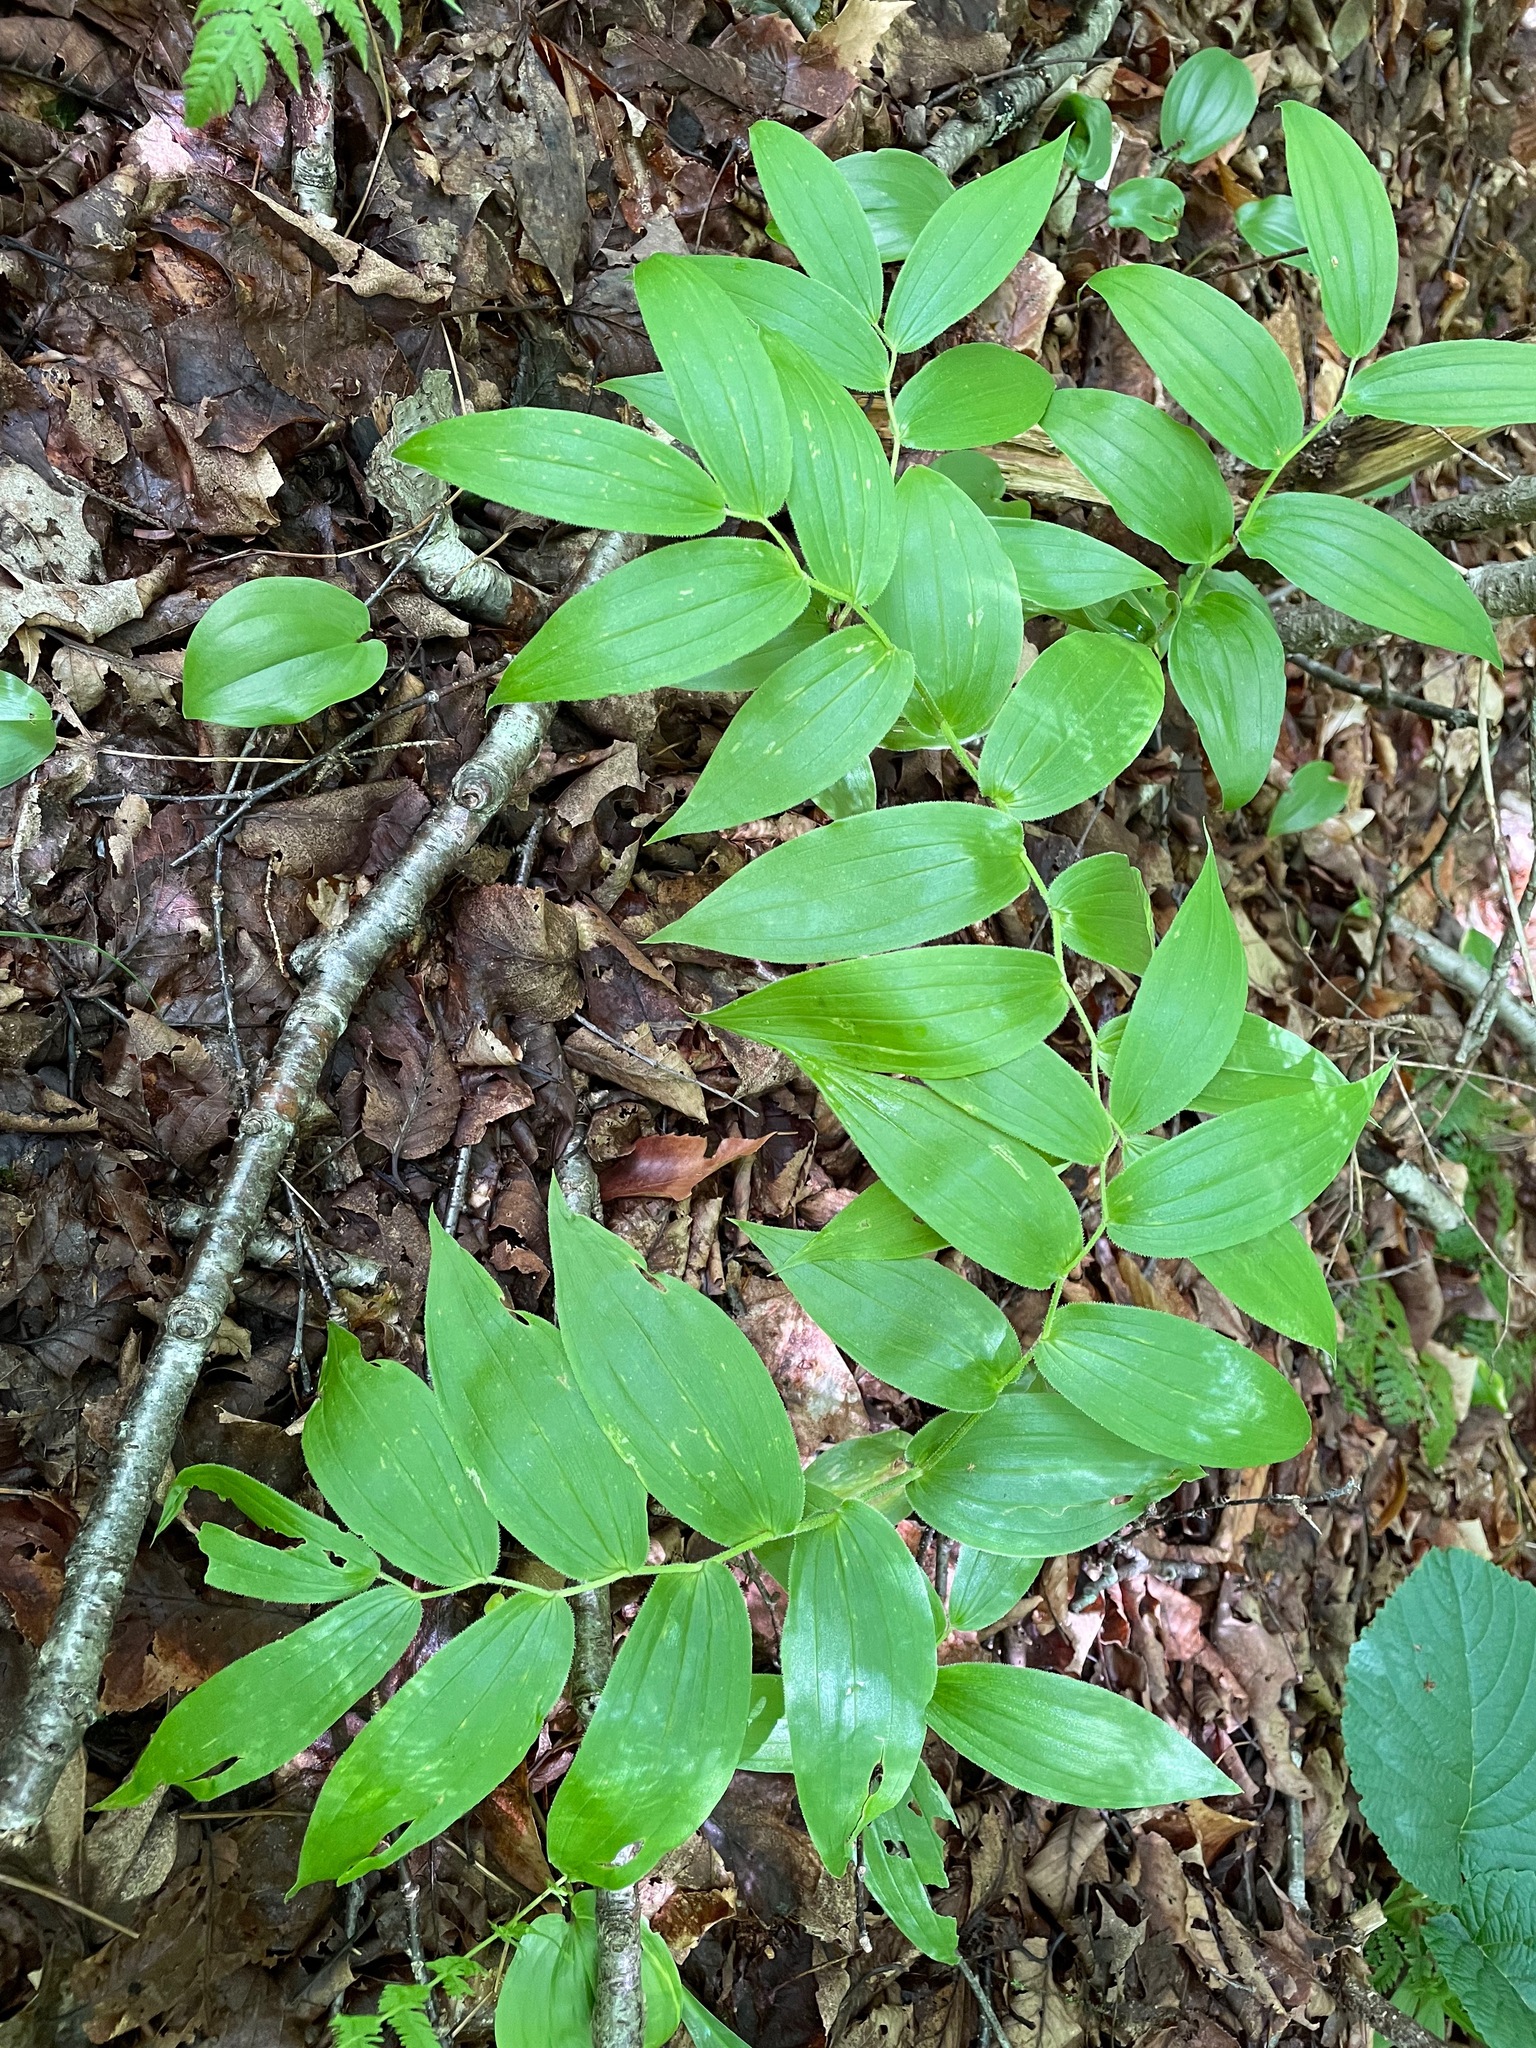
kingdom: Plantae
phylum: Tracheophyta
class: Liliopsida
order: Liliales
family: Liliaceae
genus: Streptopus
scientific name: Streptopus lanceolatus
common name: Rose mandarin
